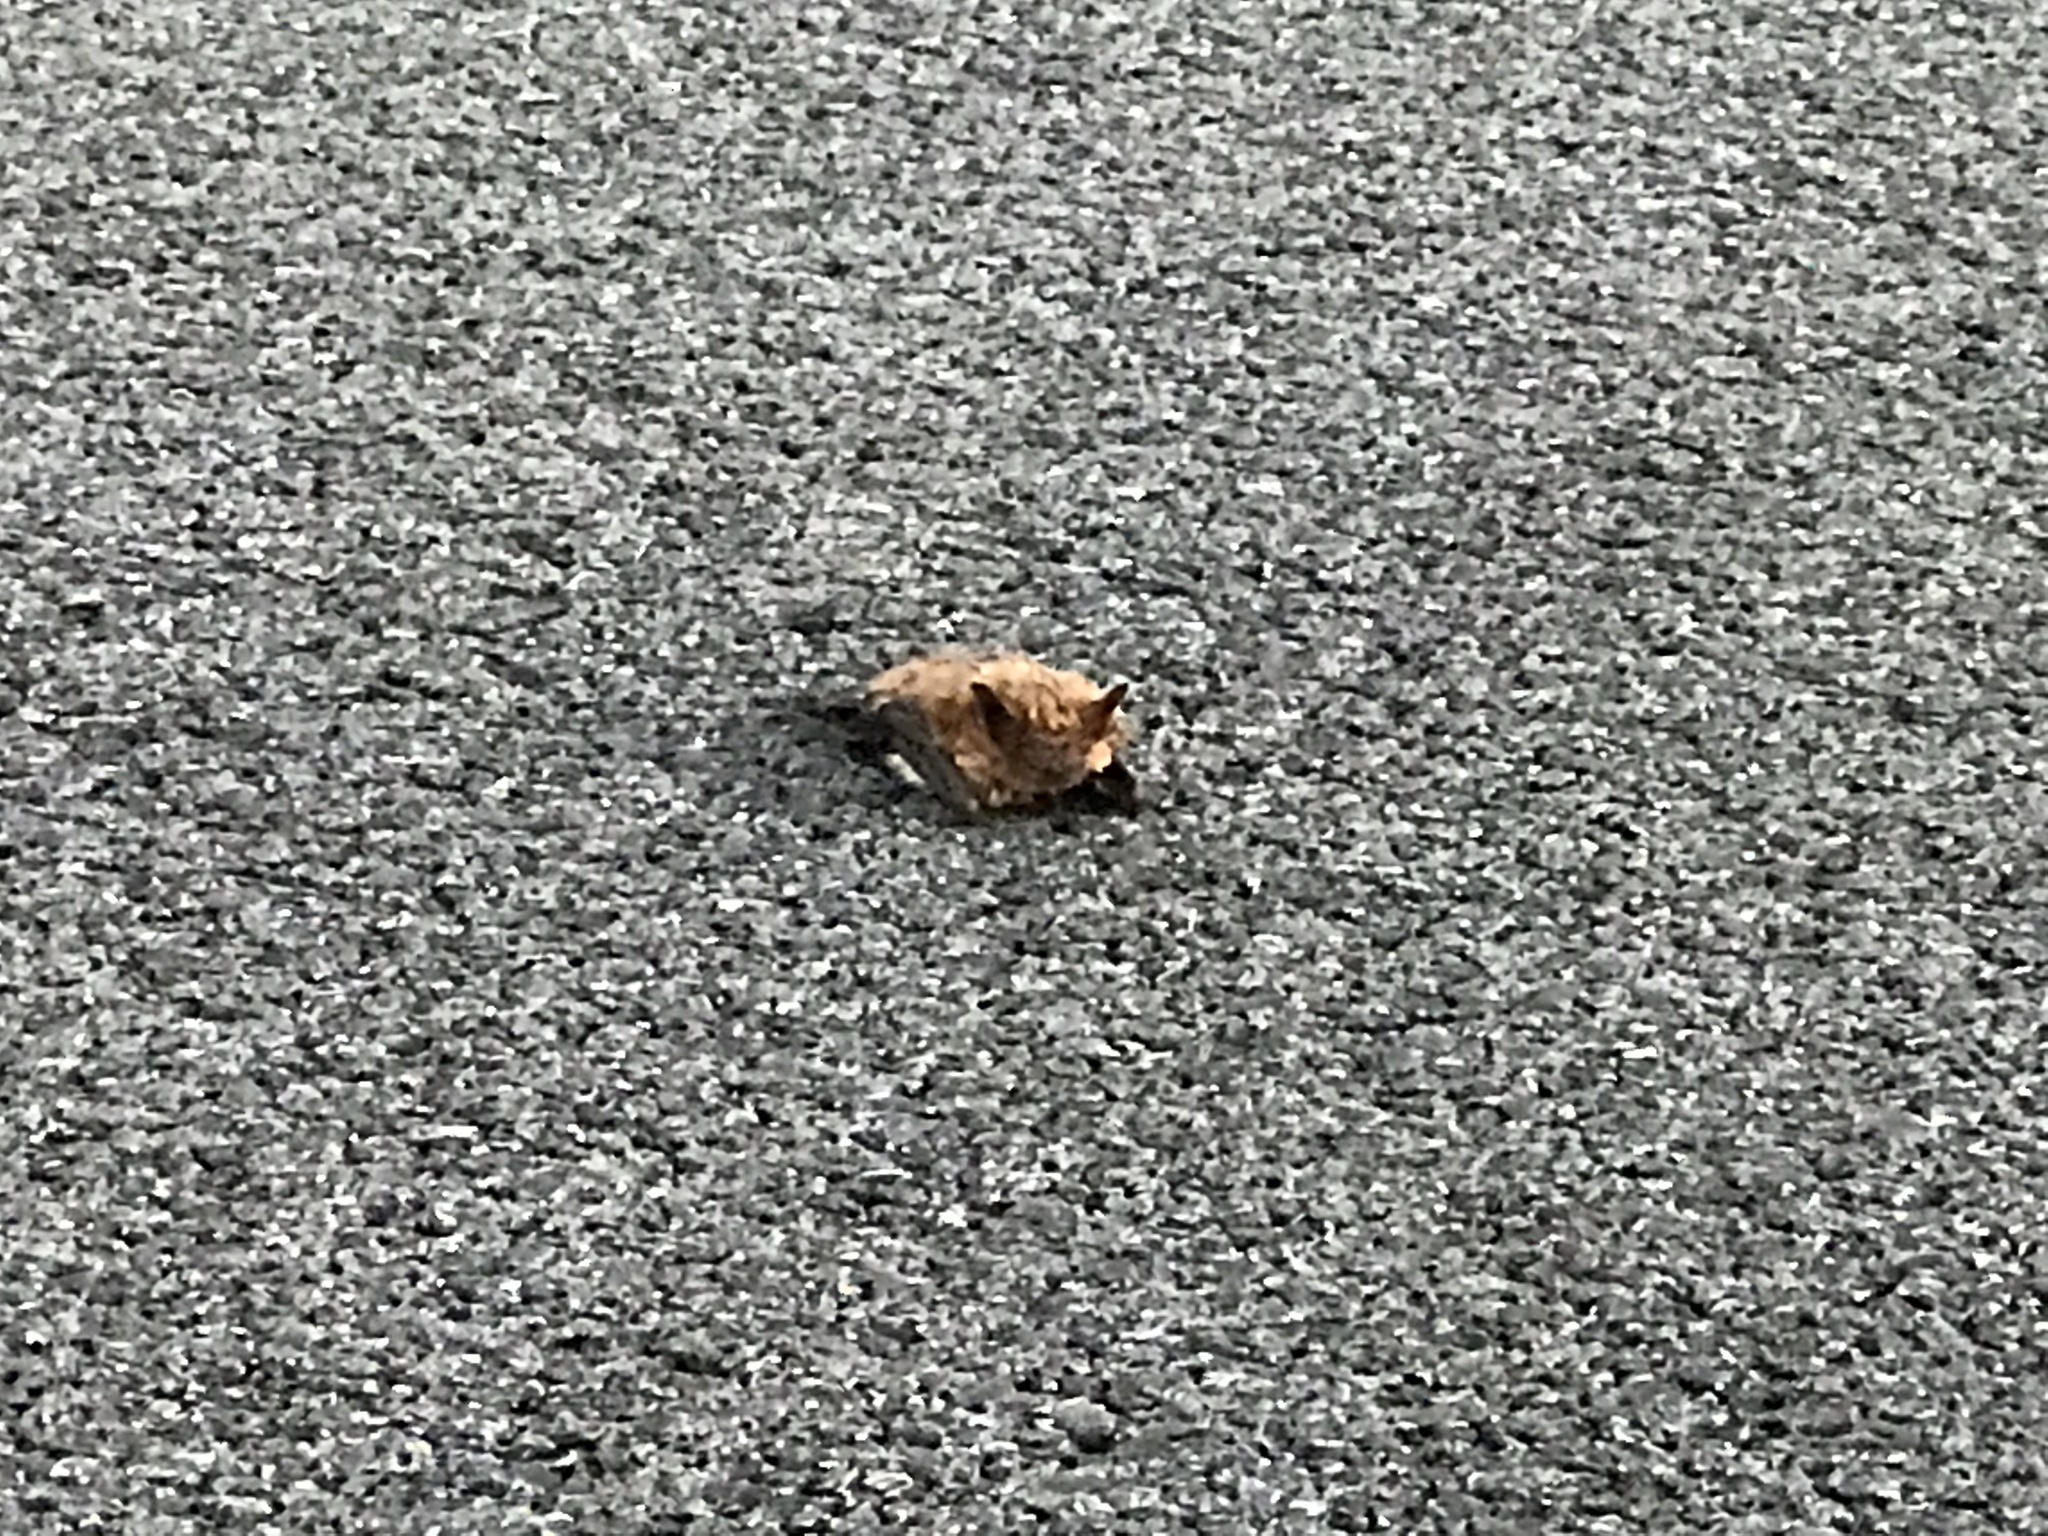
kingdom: Animalia
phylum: Chordata
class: Mammalia
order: Chiroptera
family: Vespertilionidae
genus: Eptesicus
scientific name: Eptesicus fuscus
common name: Big brown bat
